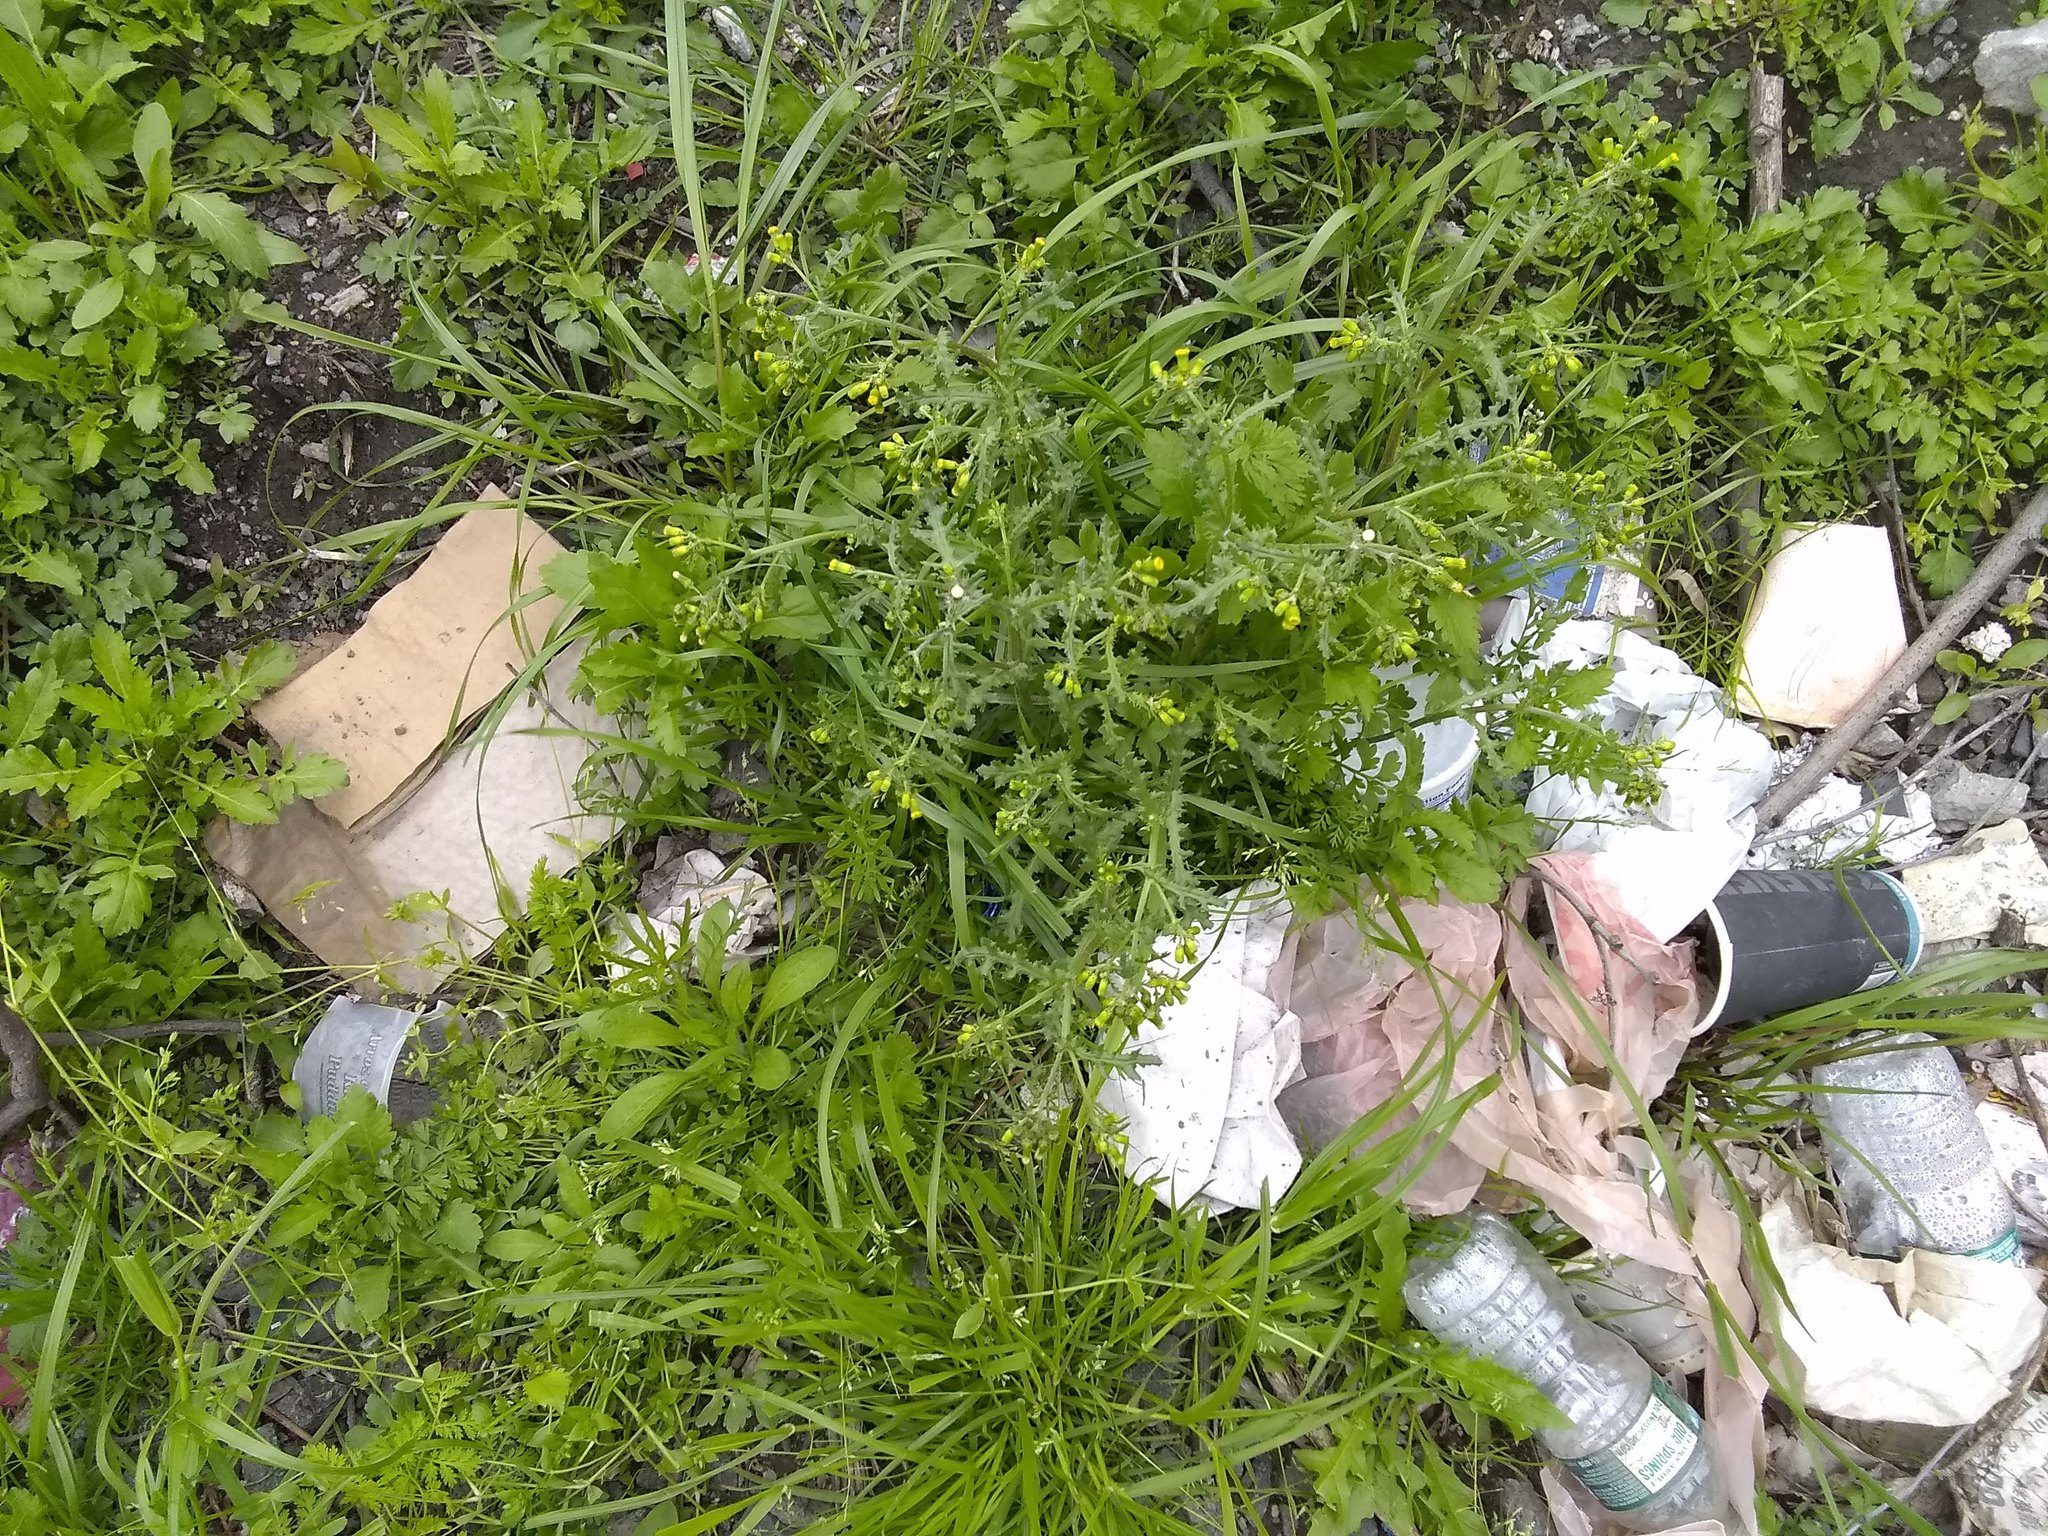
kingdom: Plantae
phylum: Tracheophyta
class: Magnoliopsida
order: Asterales
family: Asteraceae
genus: Senecio
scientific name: Senecio vulgaris
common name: Old-man-in-the-spring
